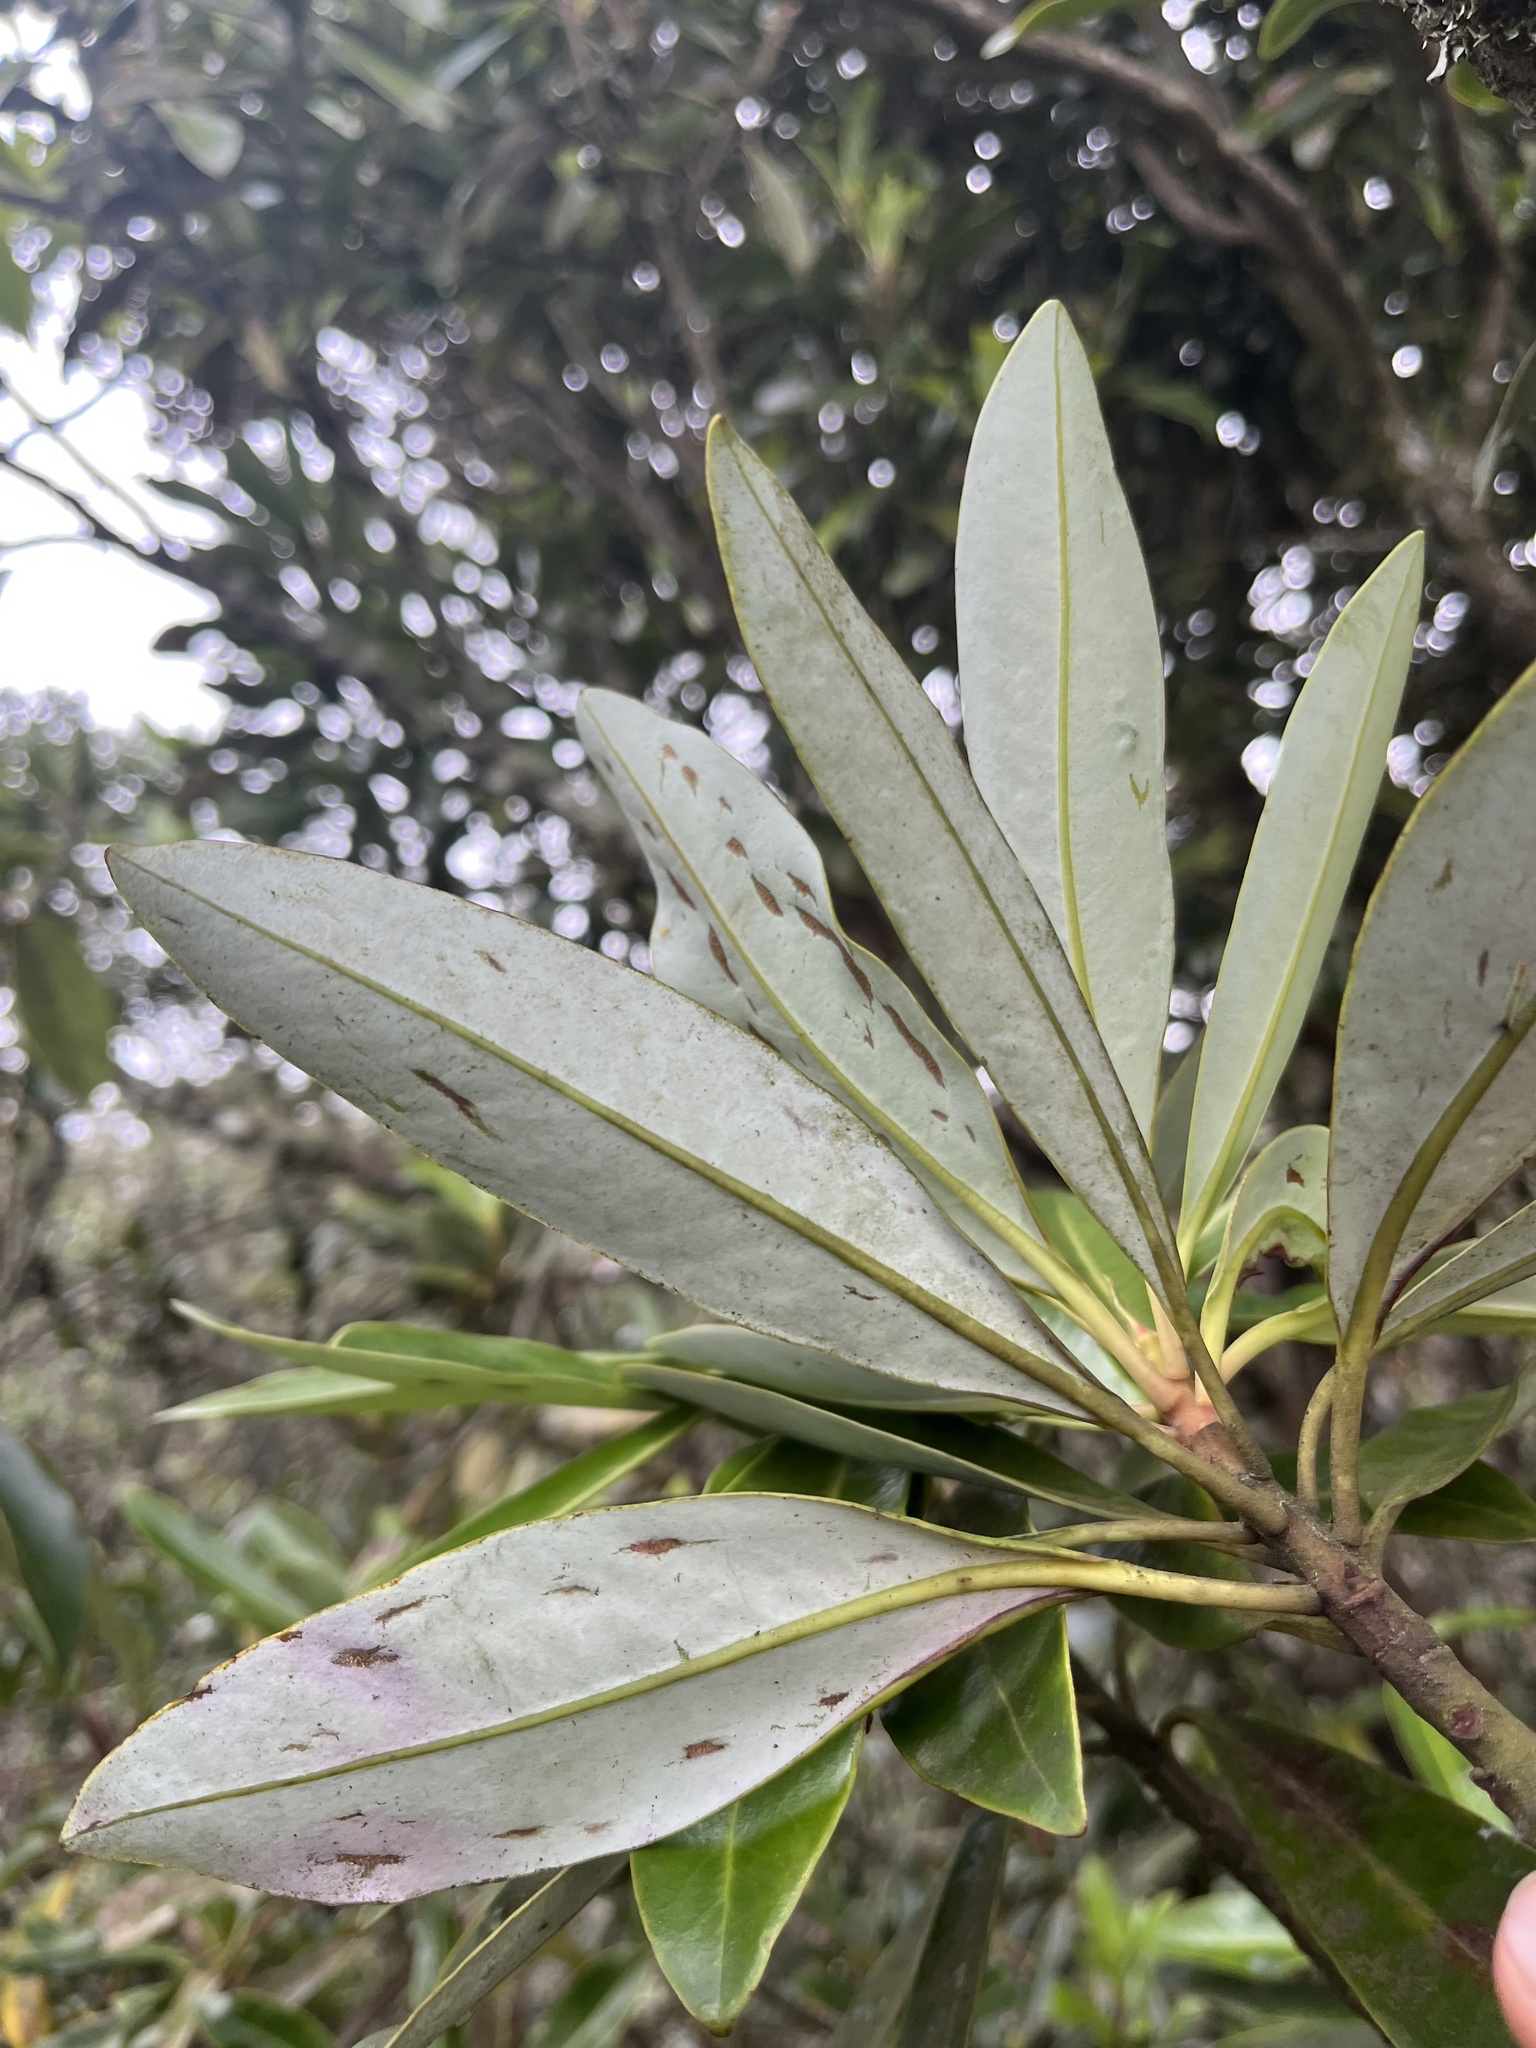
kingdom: Plantae
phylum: Tracheophyta
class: Magnoliopsida
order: Canellales
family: Winteraceae
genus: Drimys
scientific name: Drimys granadensis
